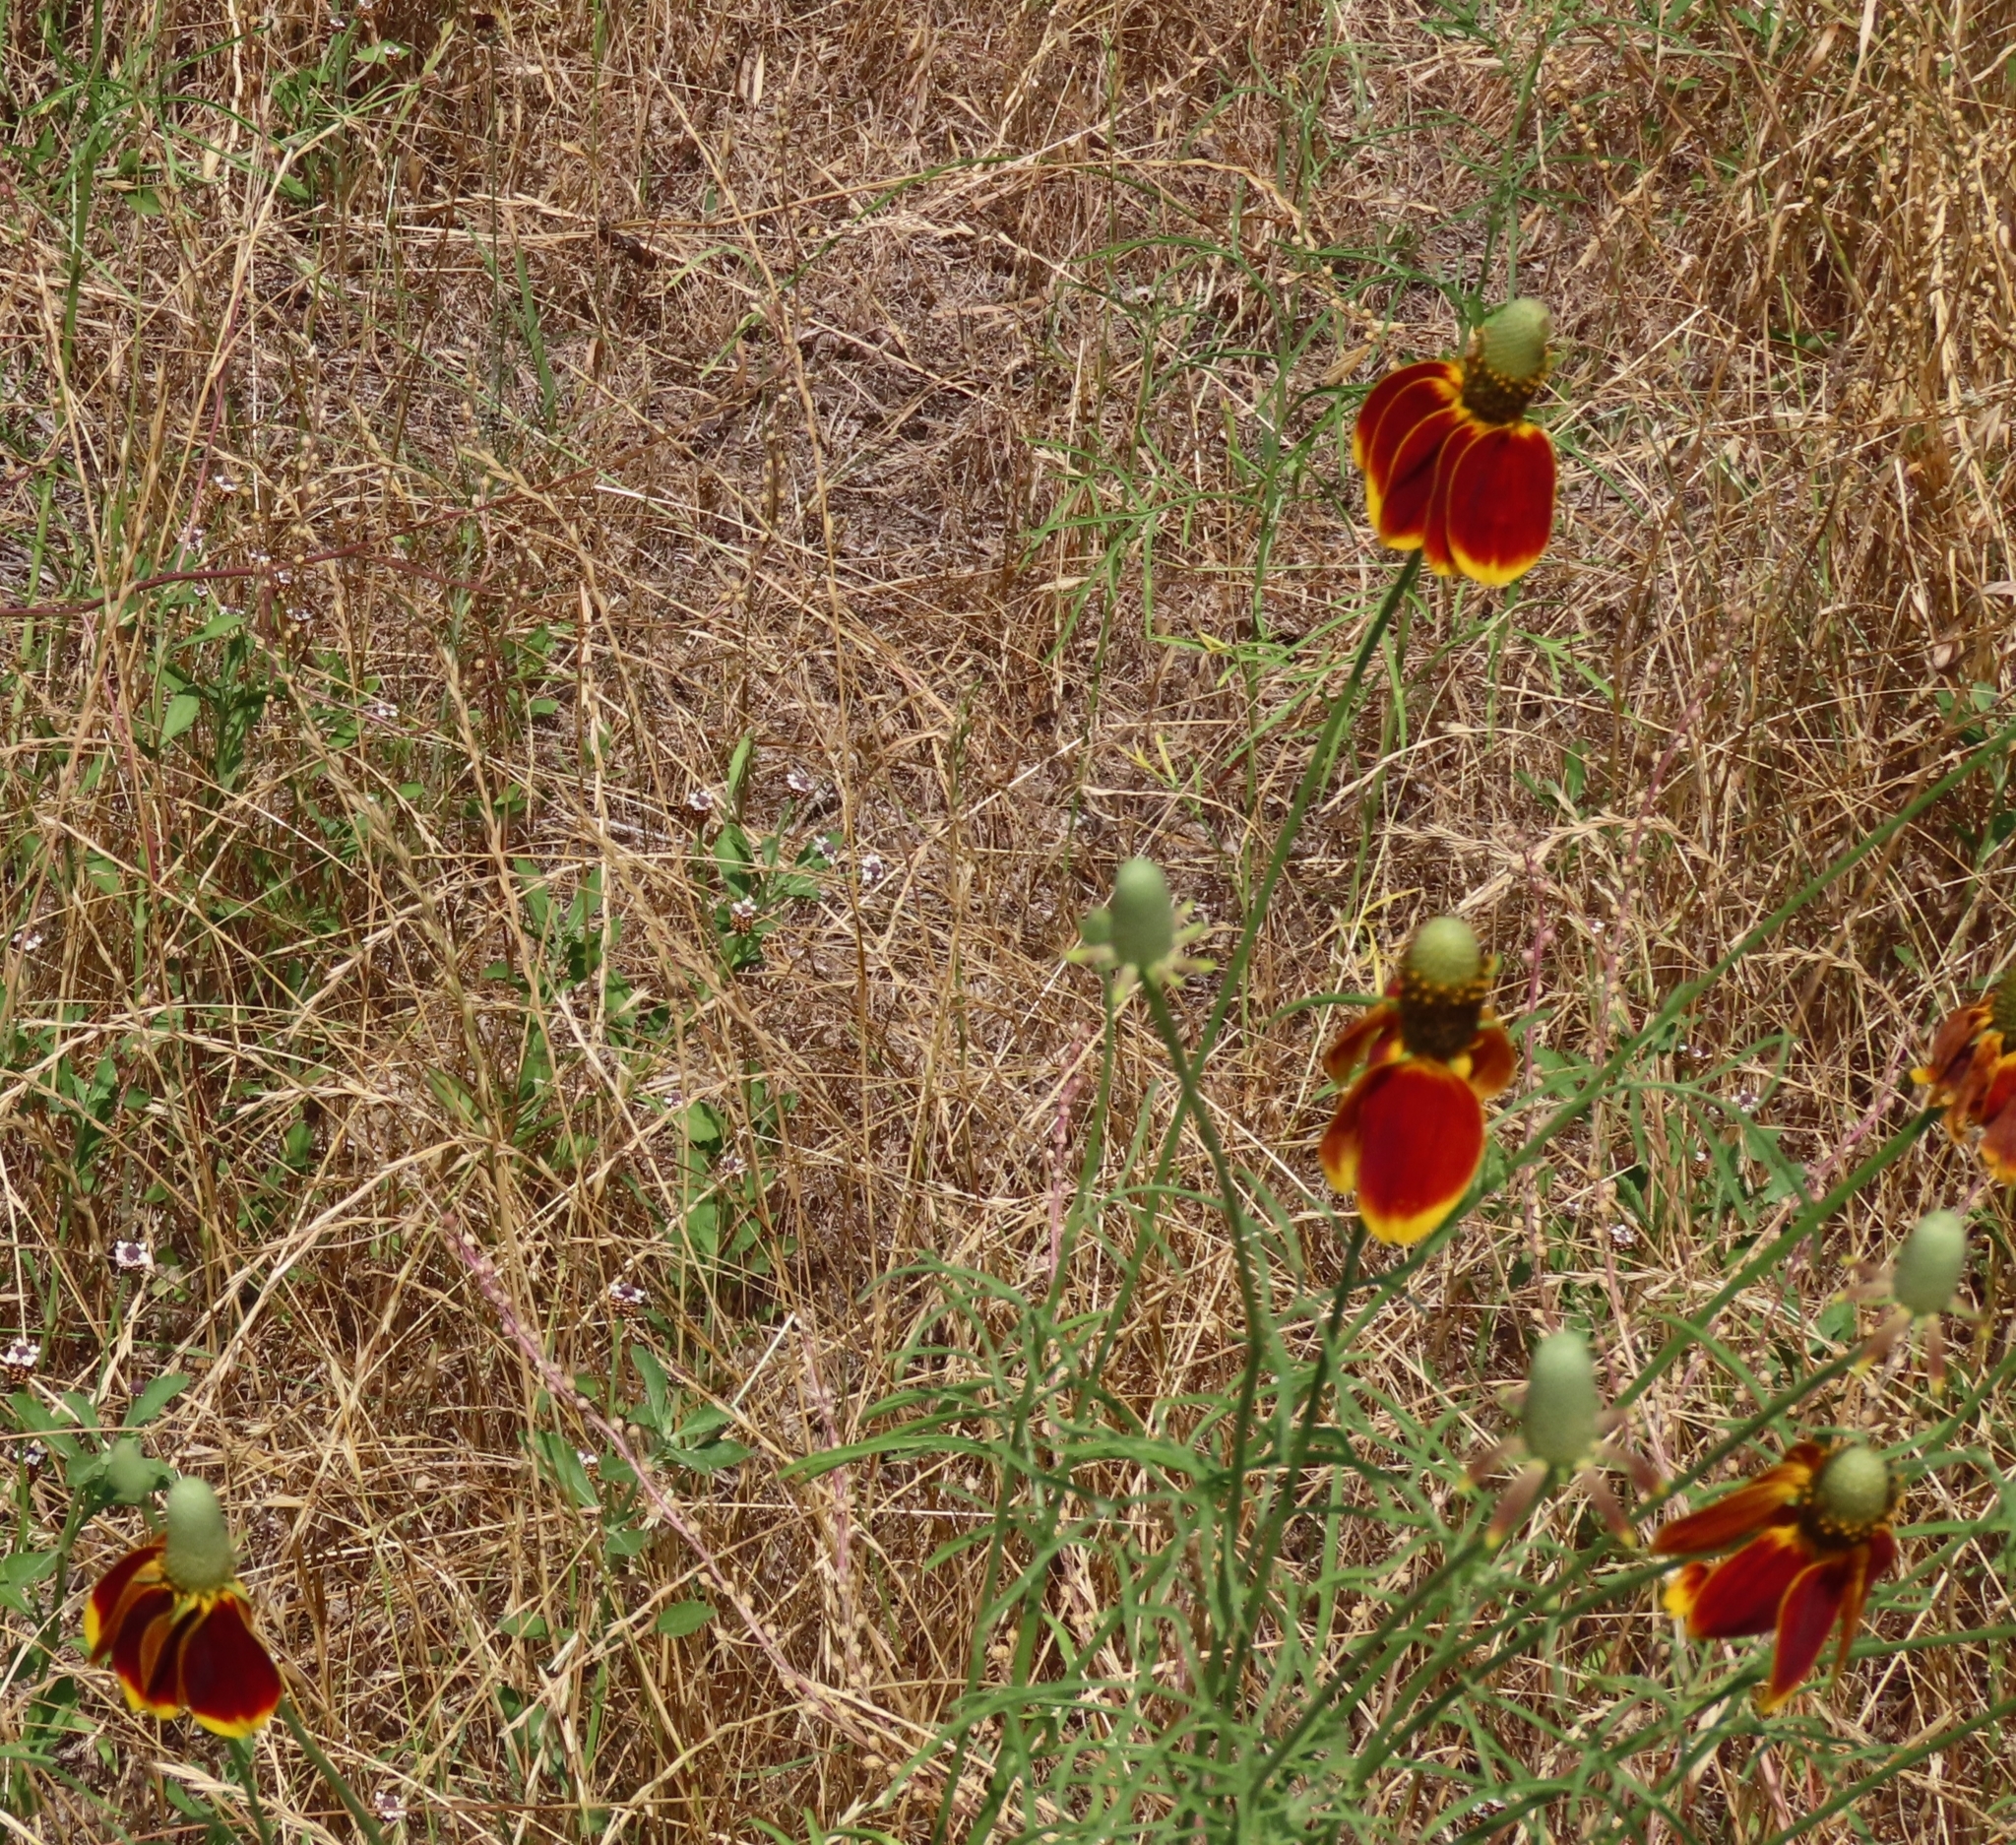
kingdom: Plantae
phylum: Tracheophyta
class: Magnoliopsida
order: Asterales
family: Asteraceae
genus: Ratibida
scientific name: Ratibida columnifera
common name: Prairie coneflower
